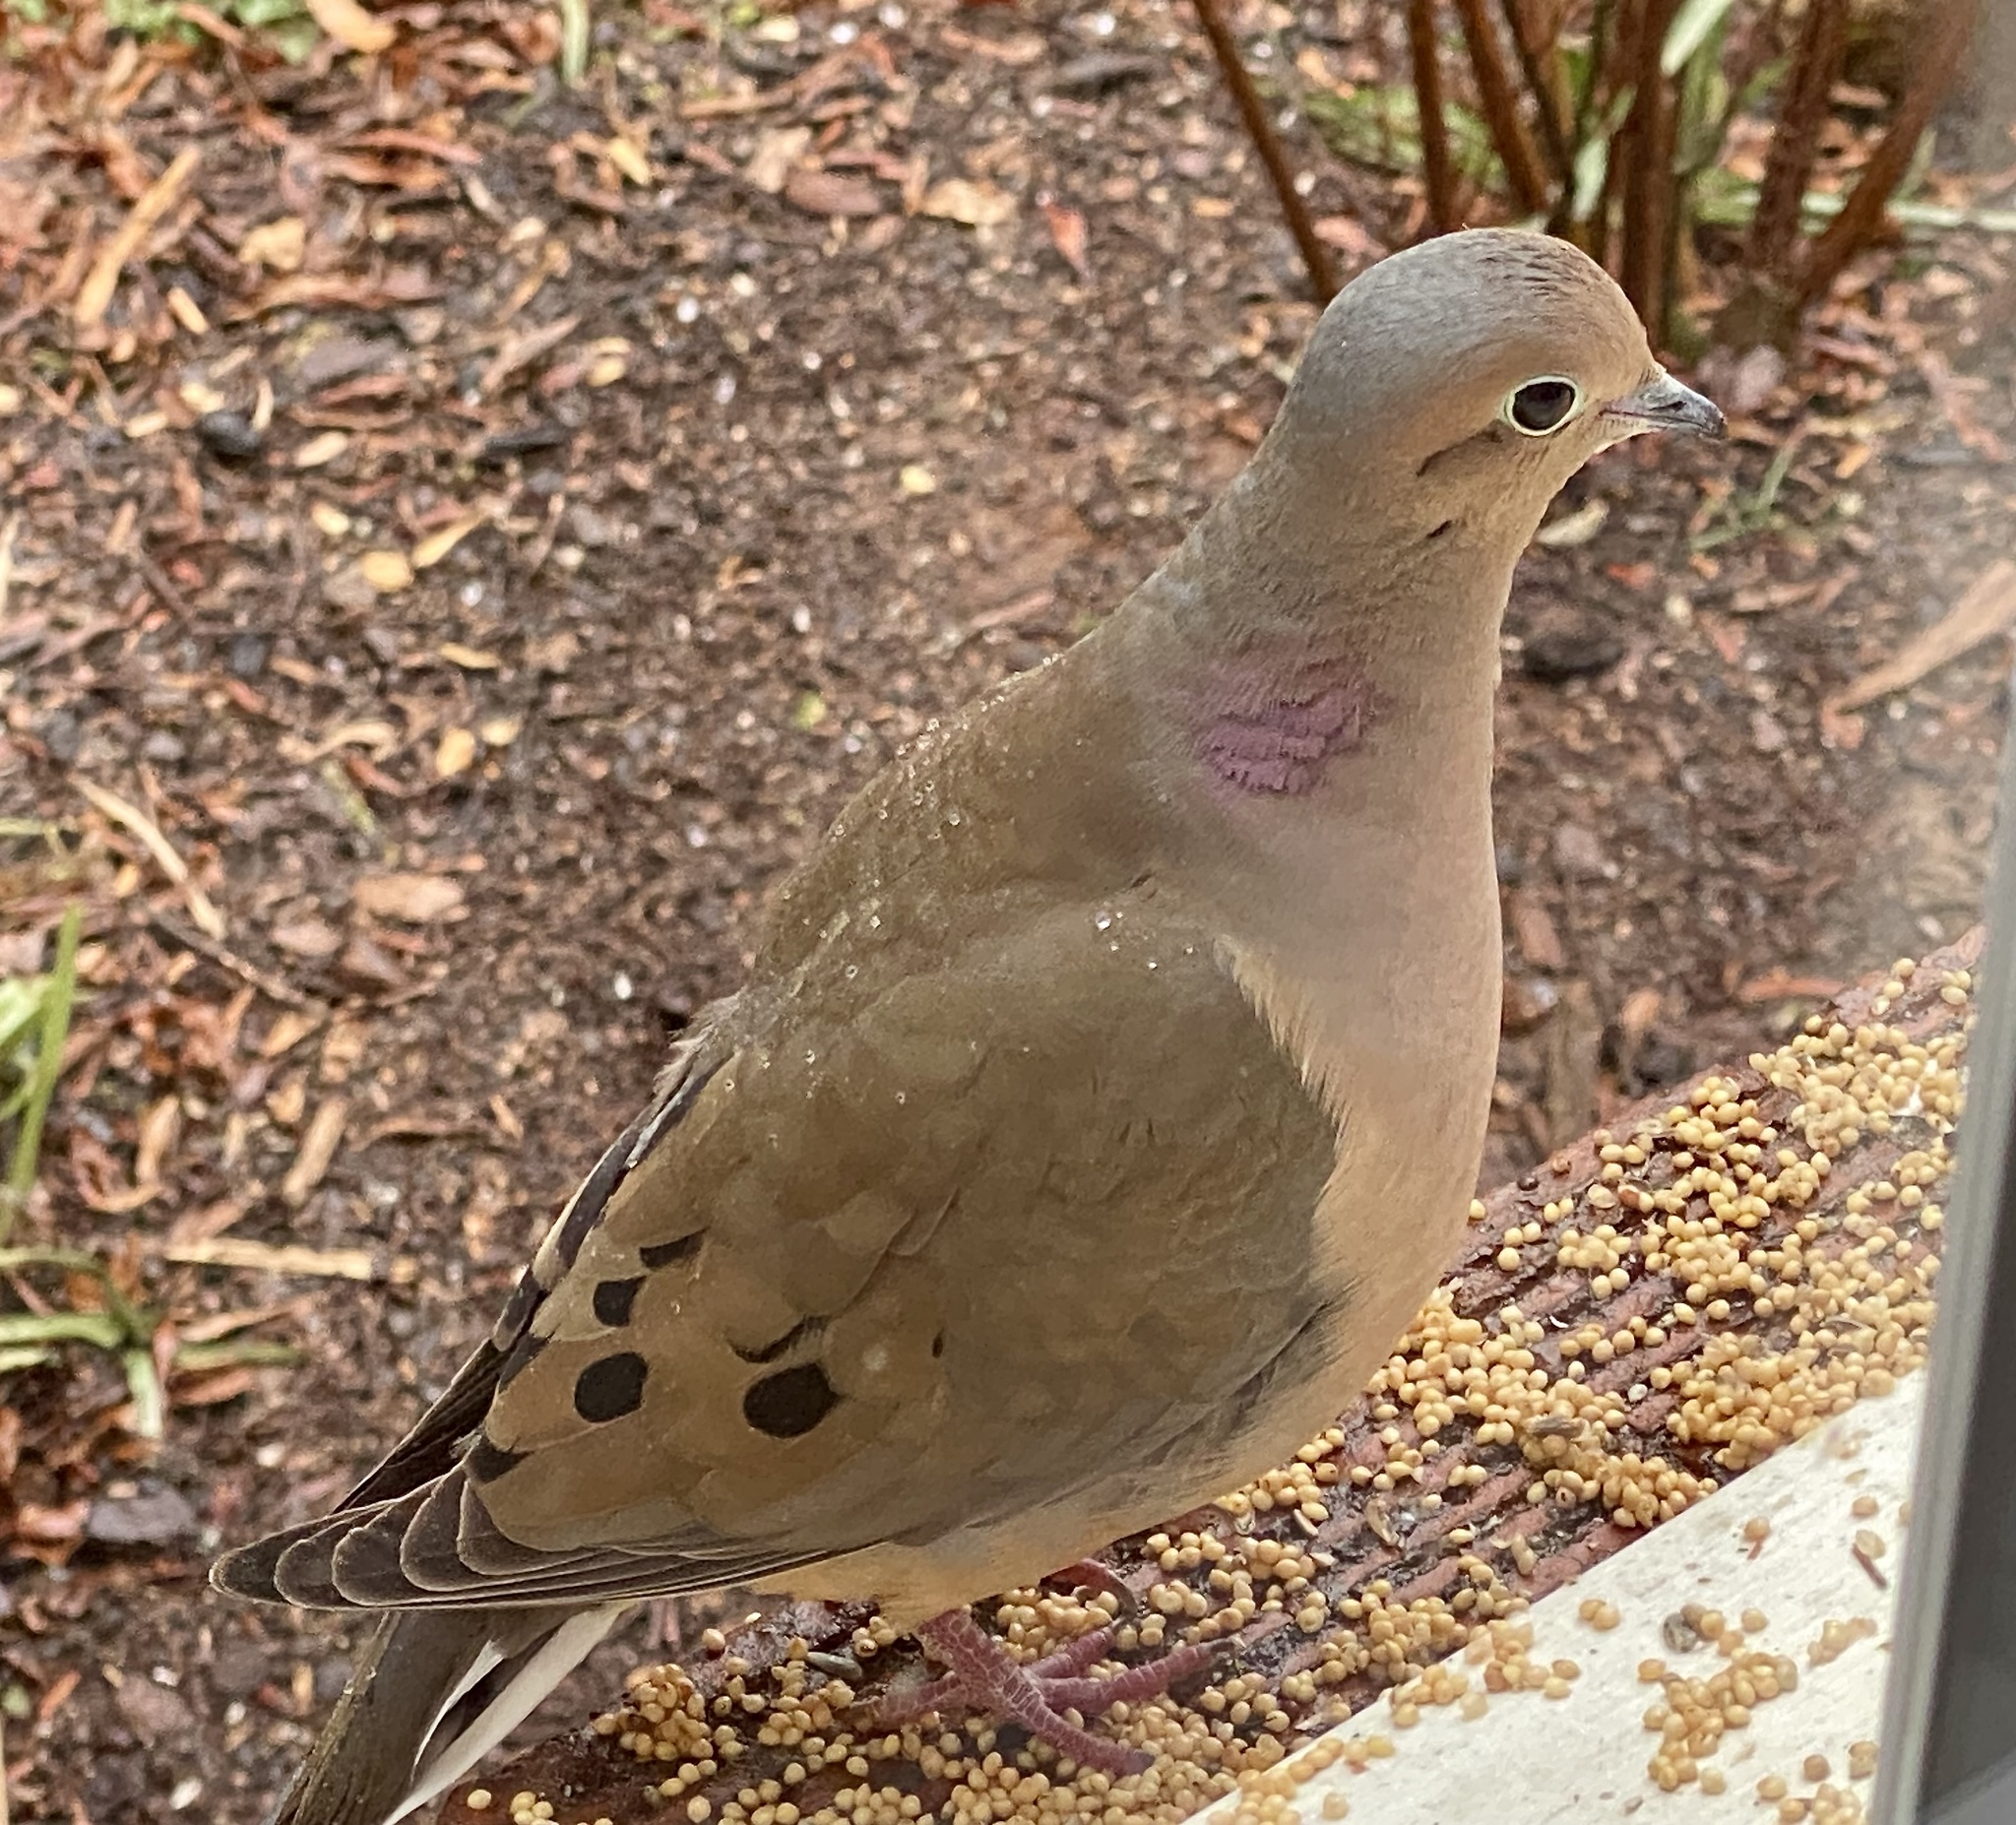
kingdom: Animalia
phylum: Chordata
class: Aves
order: Columbiformes
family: Columbidae
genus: Zenaida
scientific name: Zenaida macroura
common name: Mourning dove
